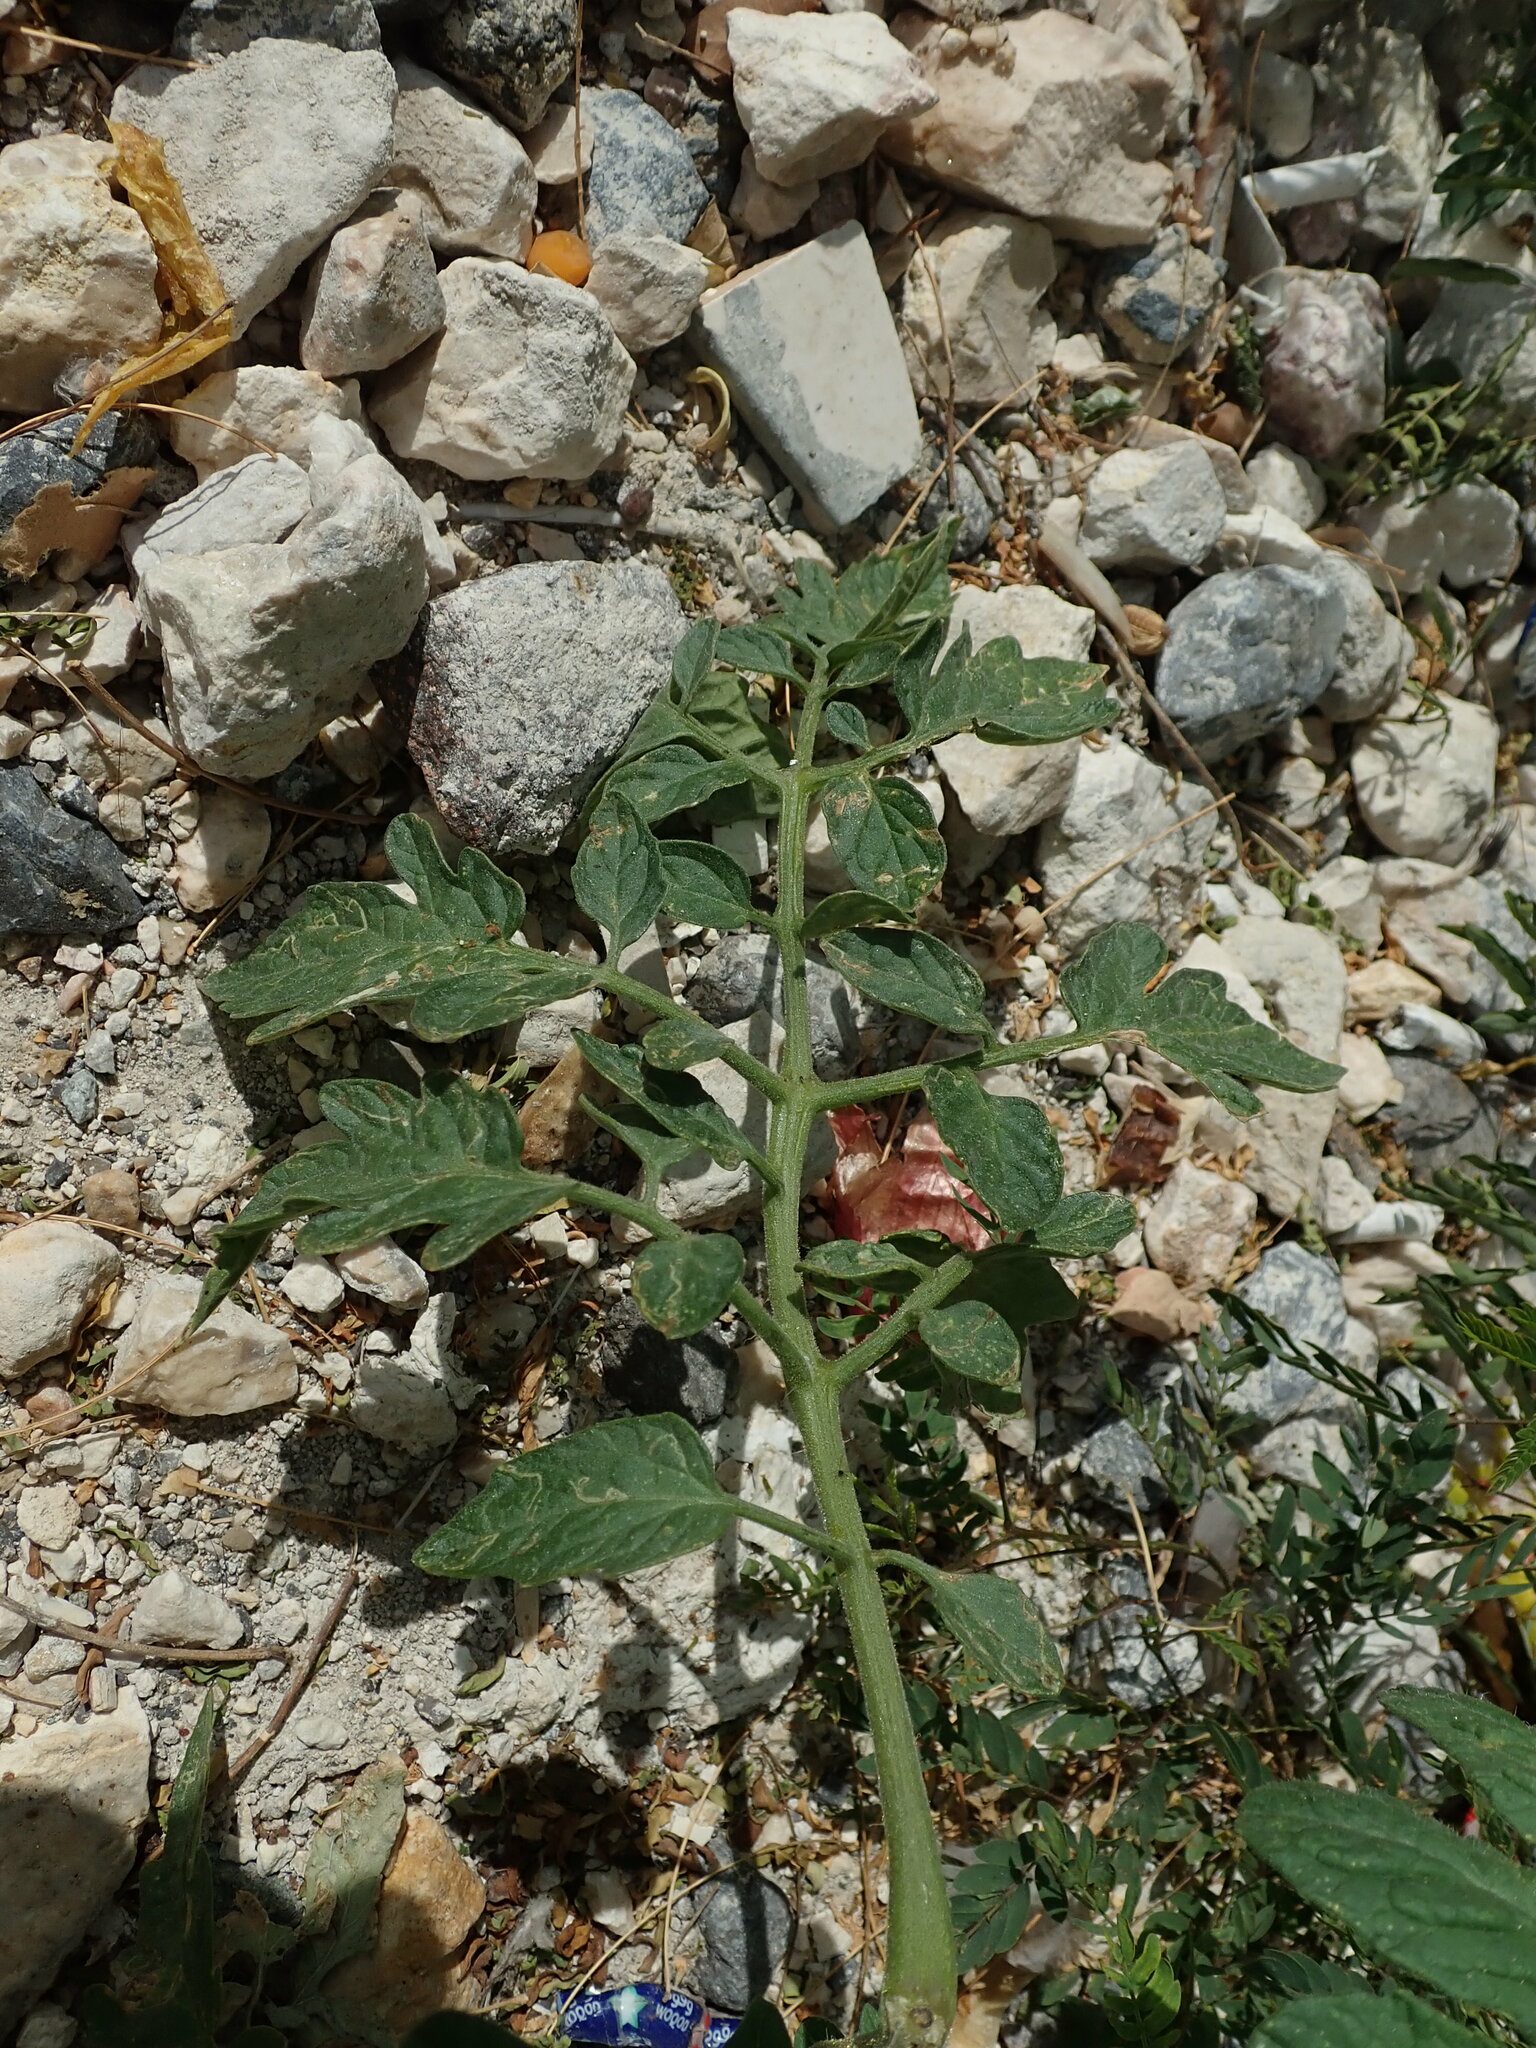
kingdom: Plantae
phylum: Tracheophyta
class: Magnoliopsida
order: Solanales
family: Solanaceae
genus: Solanum
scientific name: Solanum lycopersicum
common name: Garden tomato
